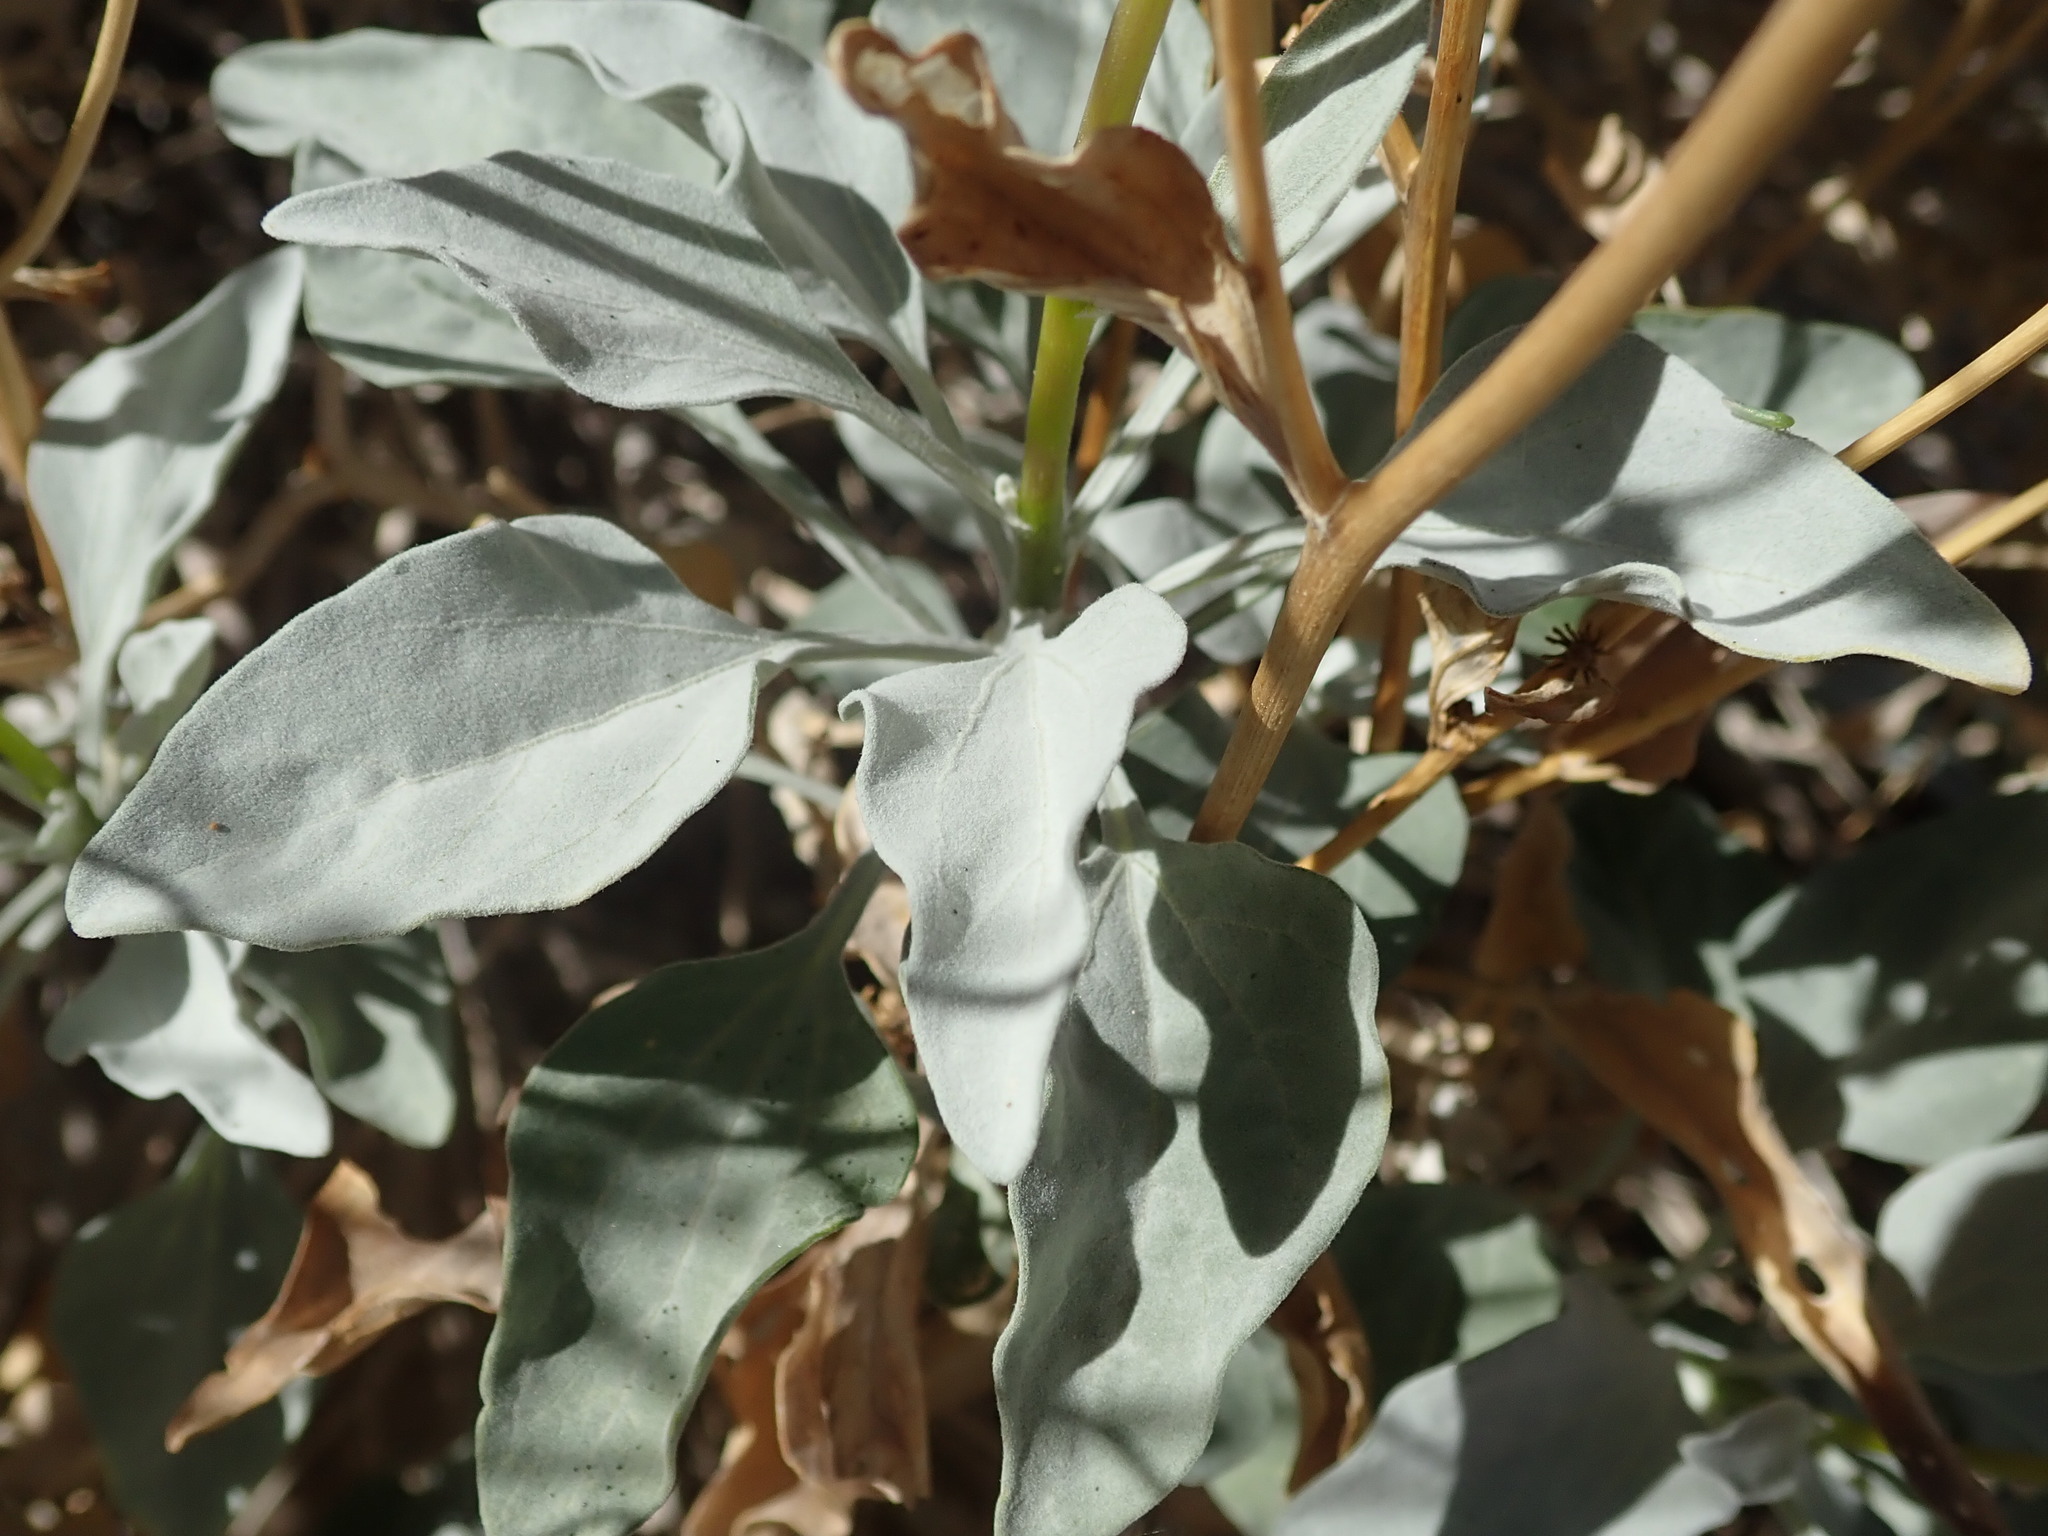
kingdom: Plantae
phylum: Tracheophyta
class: Magnoliopsida
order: Asterales
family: Asteraceae
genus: Encelia
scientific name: Encelia farinosa
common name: Brittlebush
